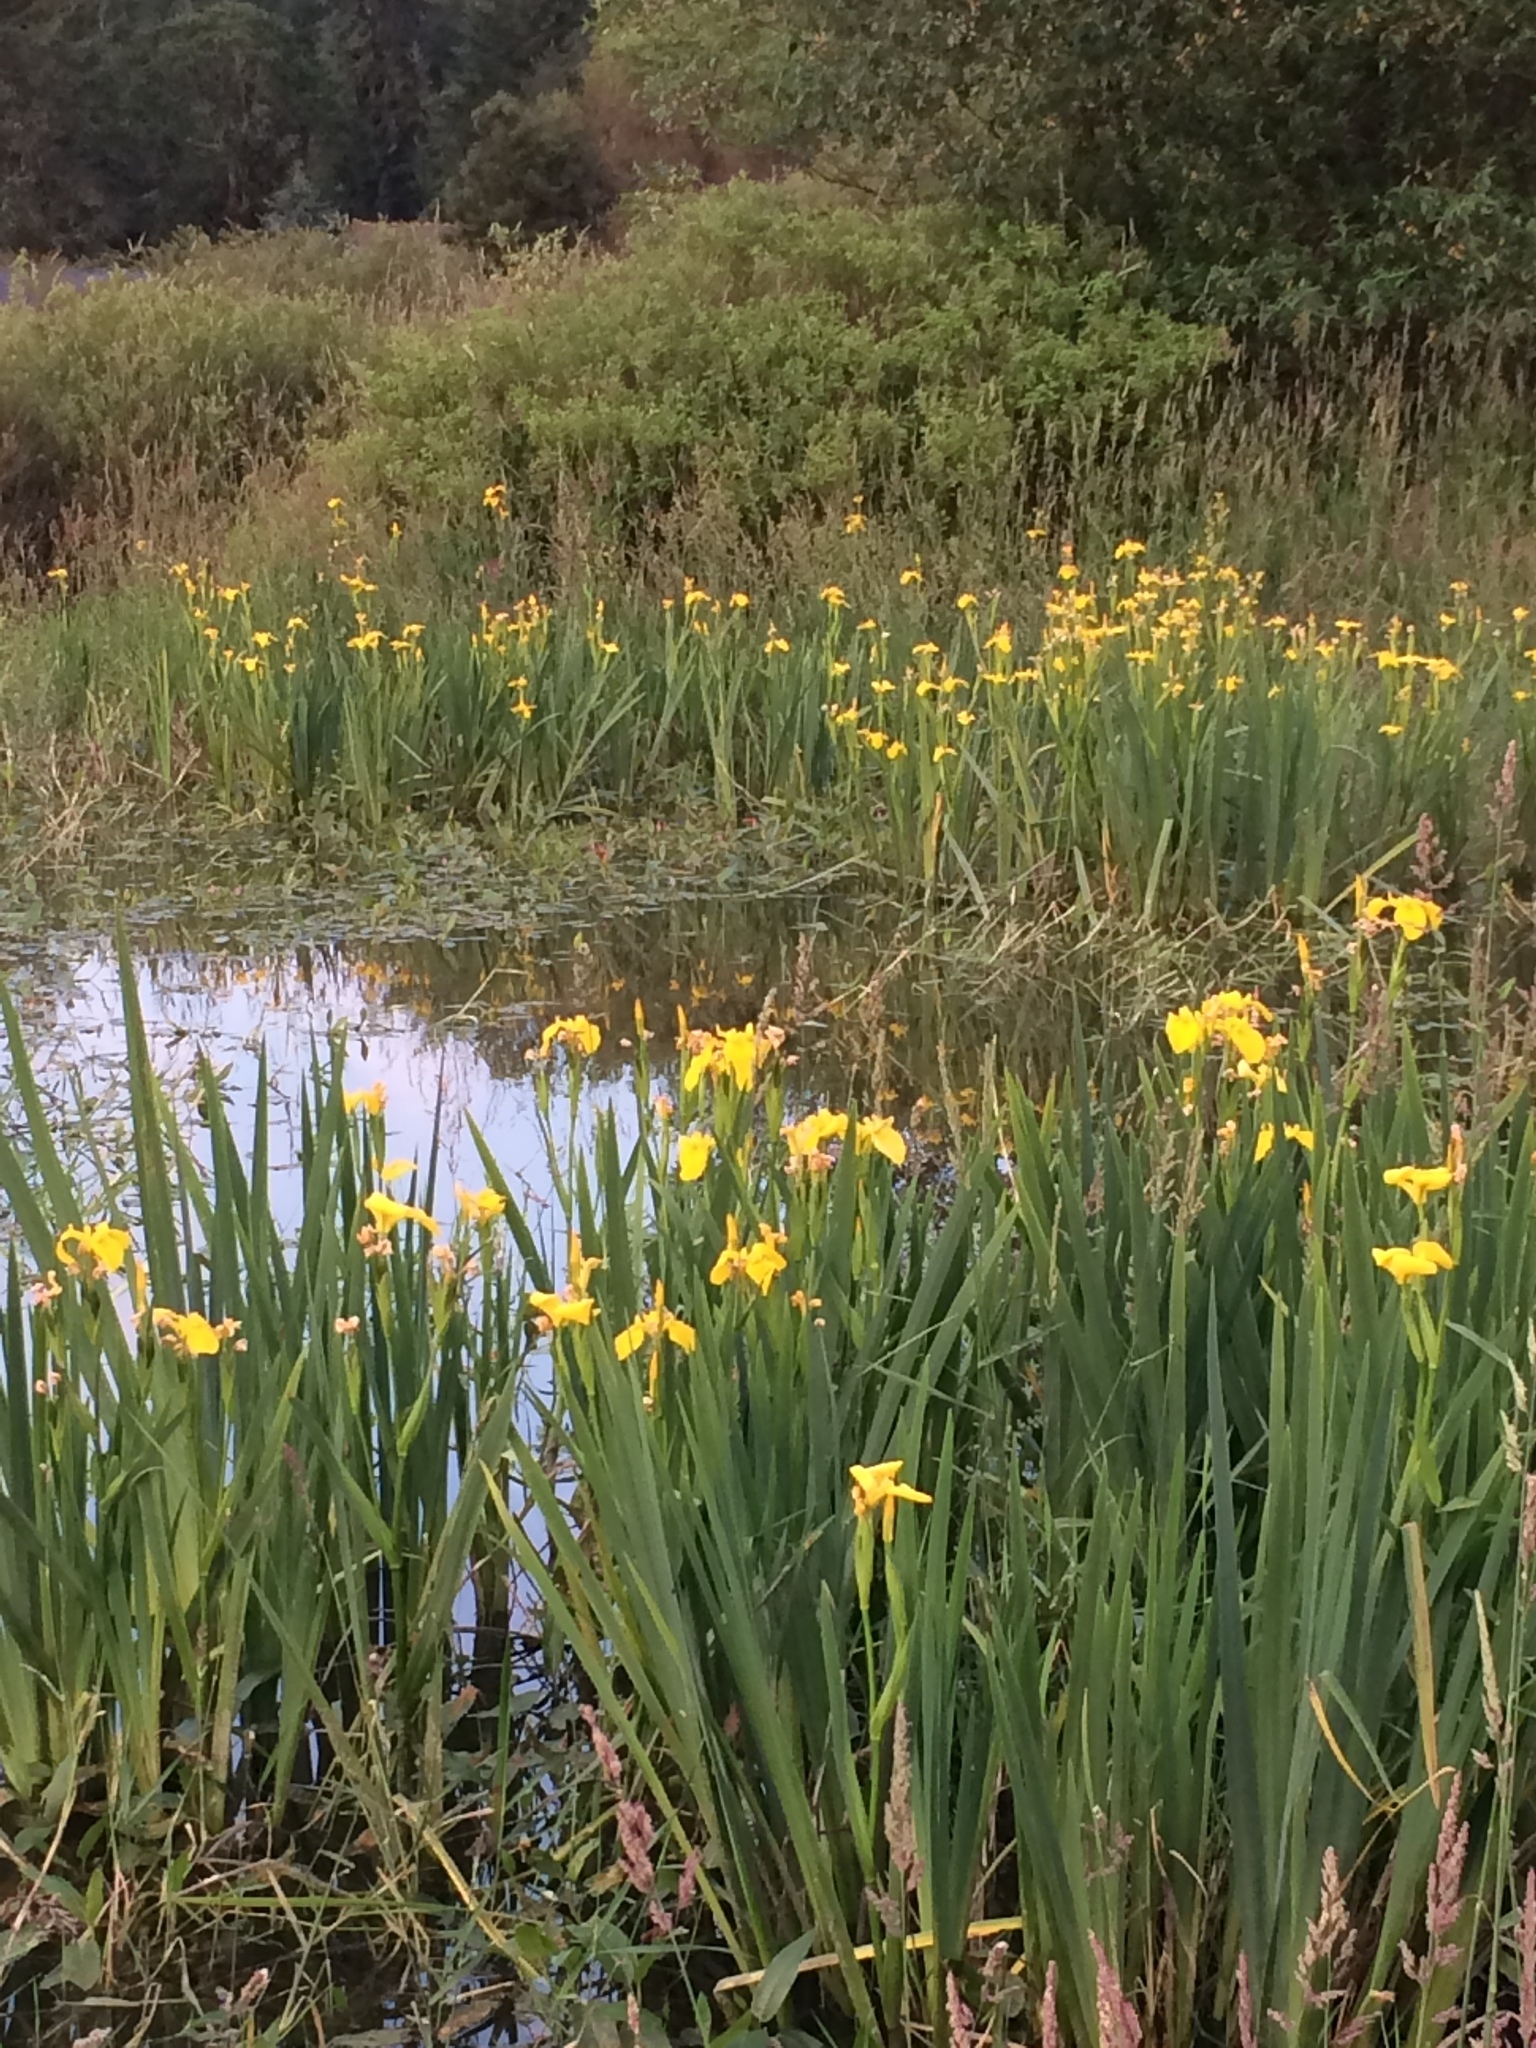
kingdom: Plantae
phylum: Tracheophyta
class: Liliopsida
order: Asparagales
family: Iridaceae
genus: Iris
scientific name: Iris pseudacorus
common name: Yellow flag
